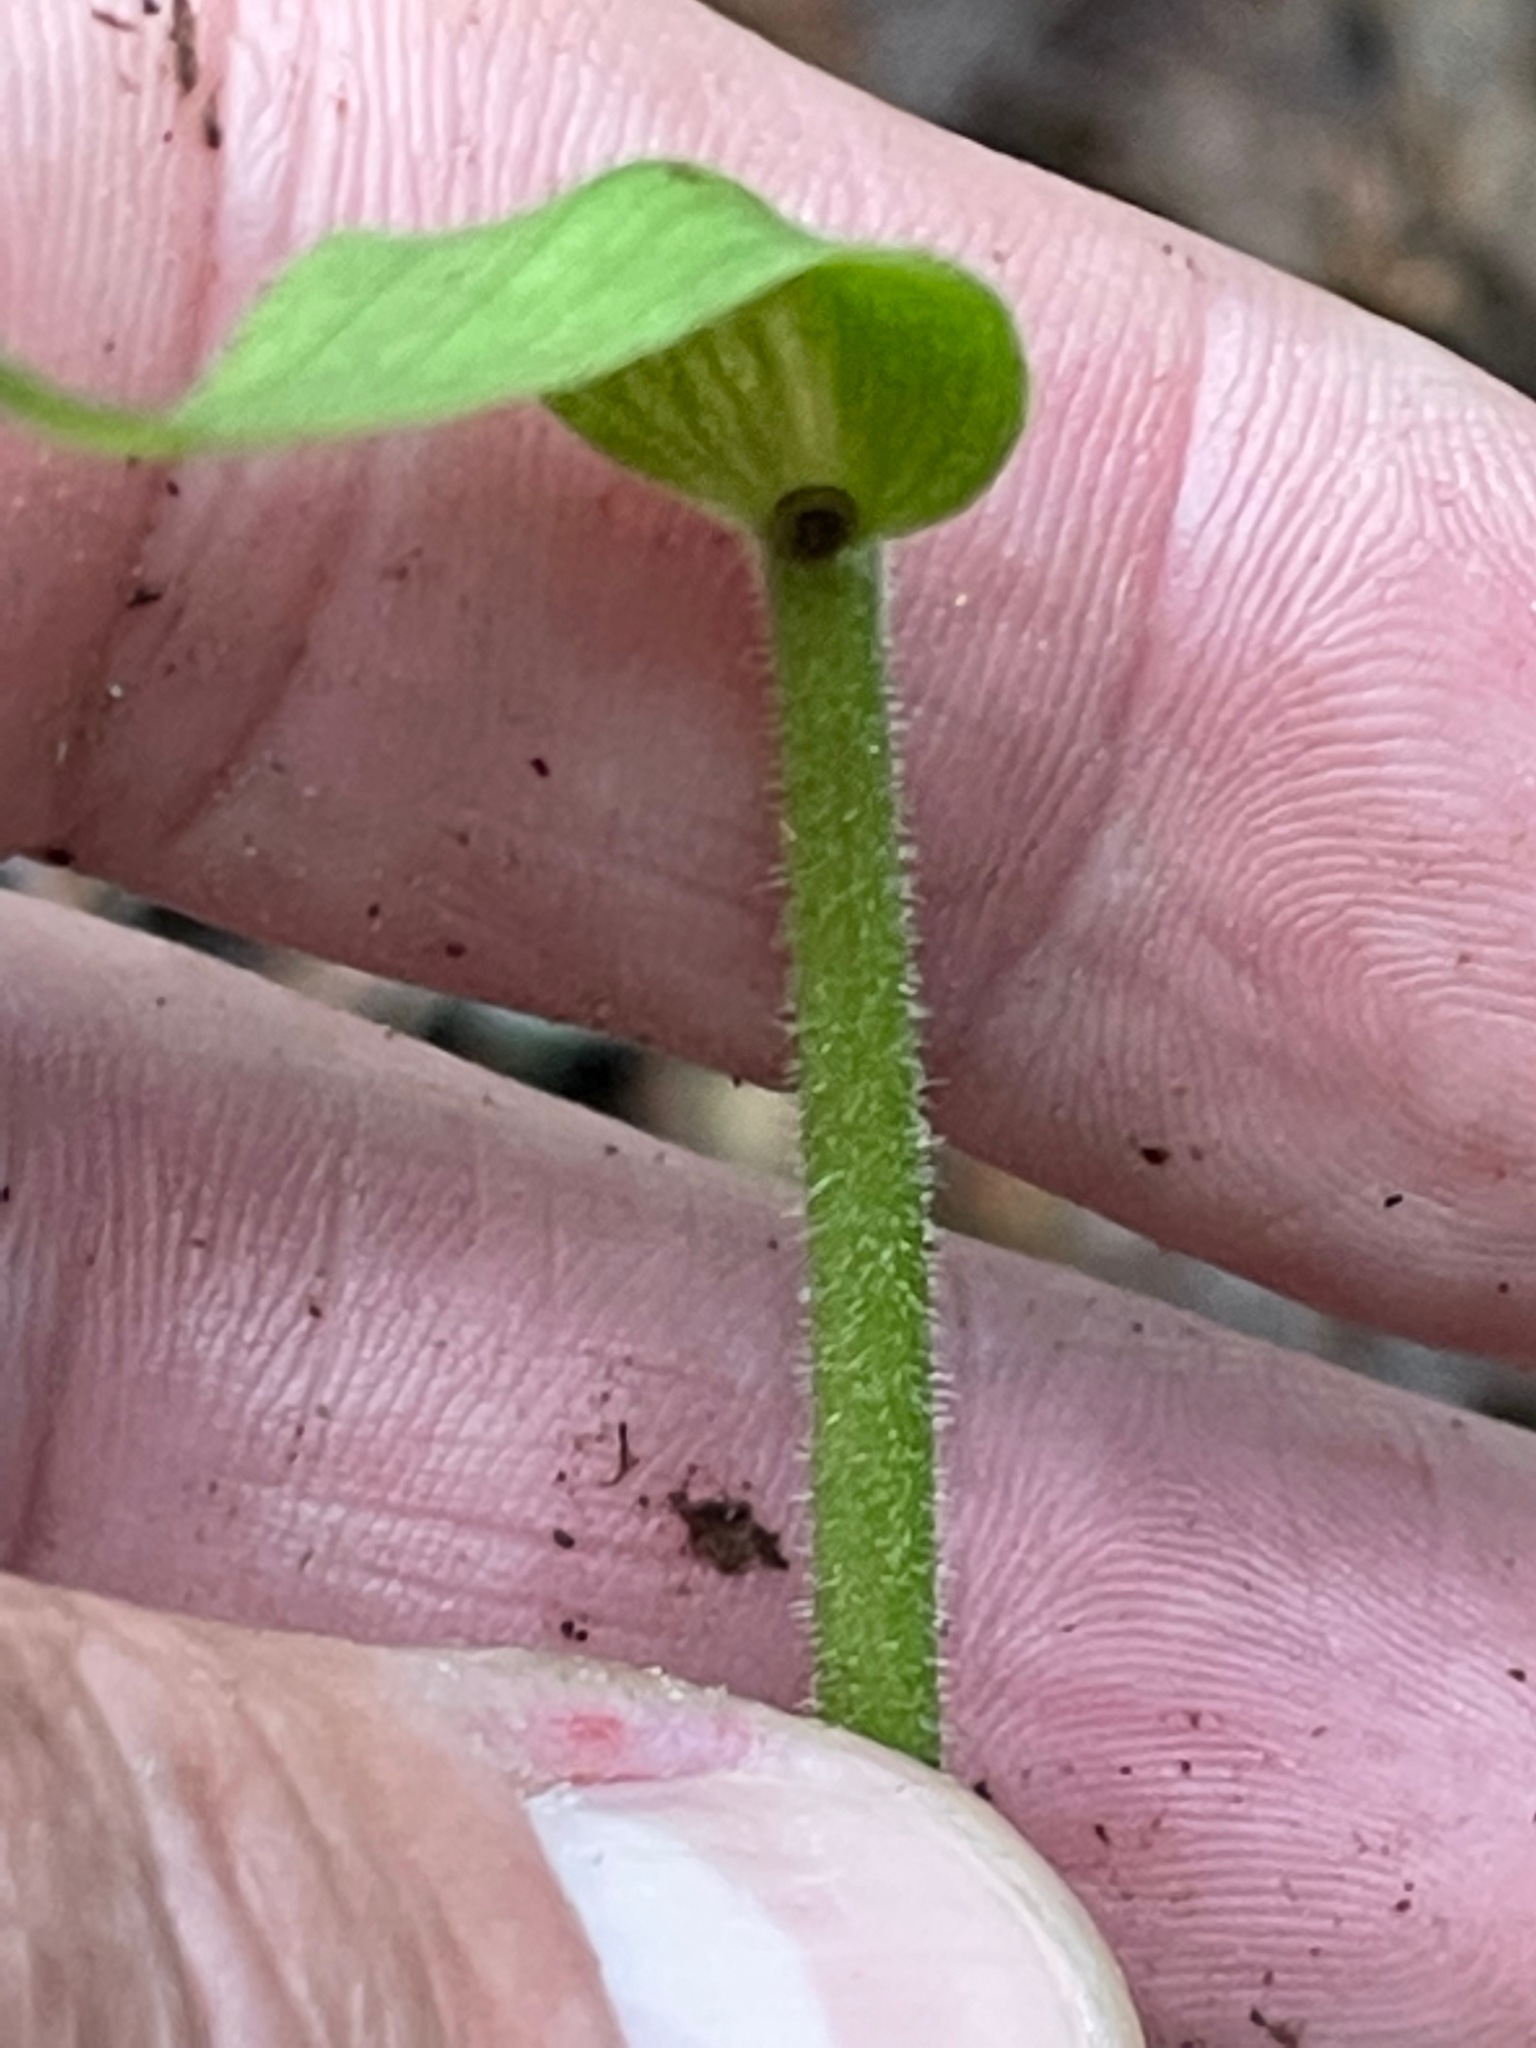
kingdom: Plantae
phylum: Tracheophyta
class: Liliopsida
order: Asparagales
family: Orchidaceae
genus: Cypripedium
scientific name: Cypripedium acaule
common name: Pink lady's-slipper
